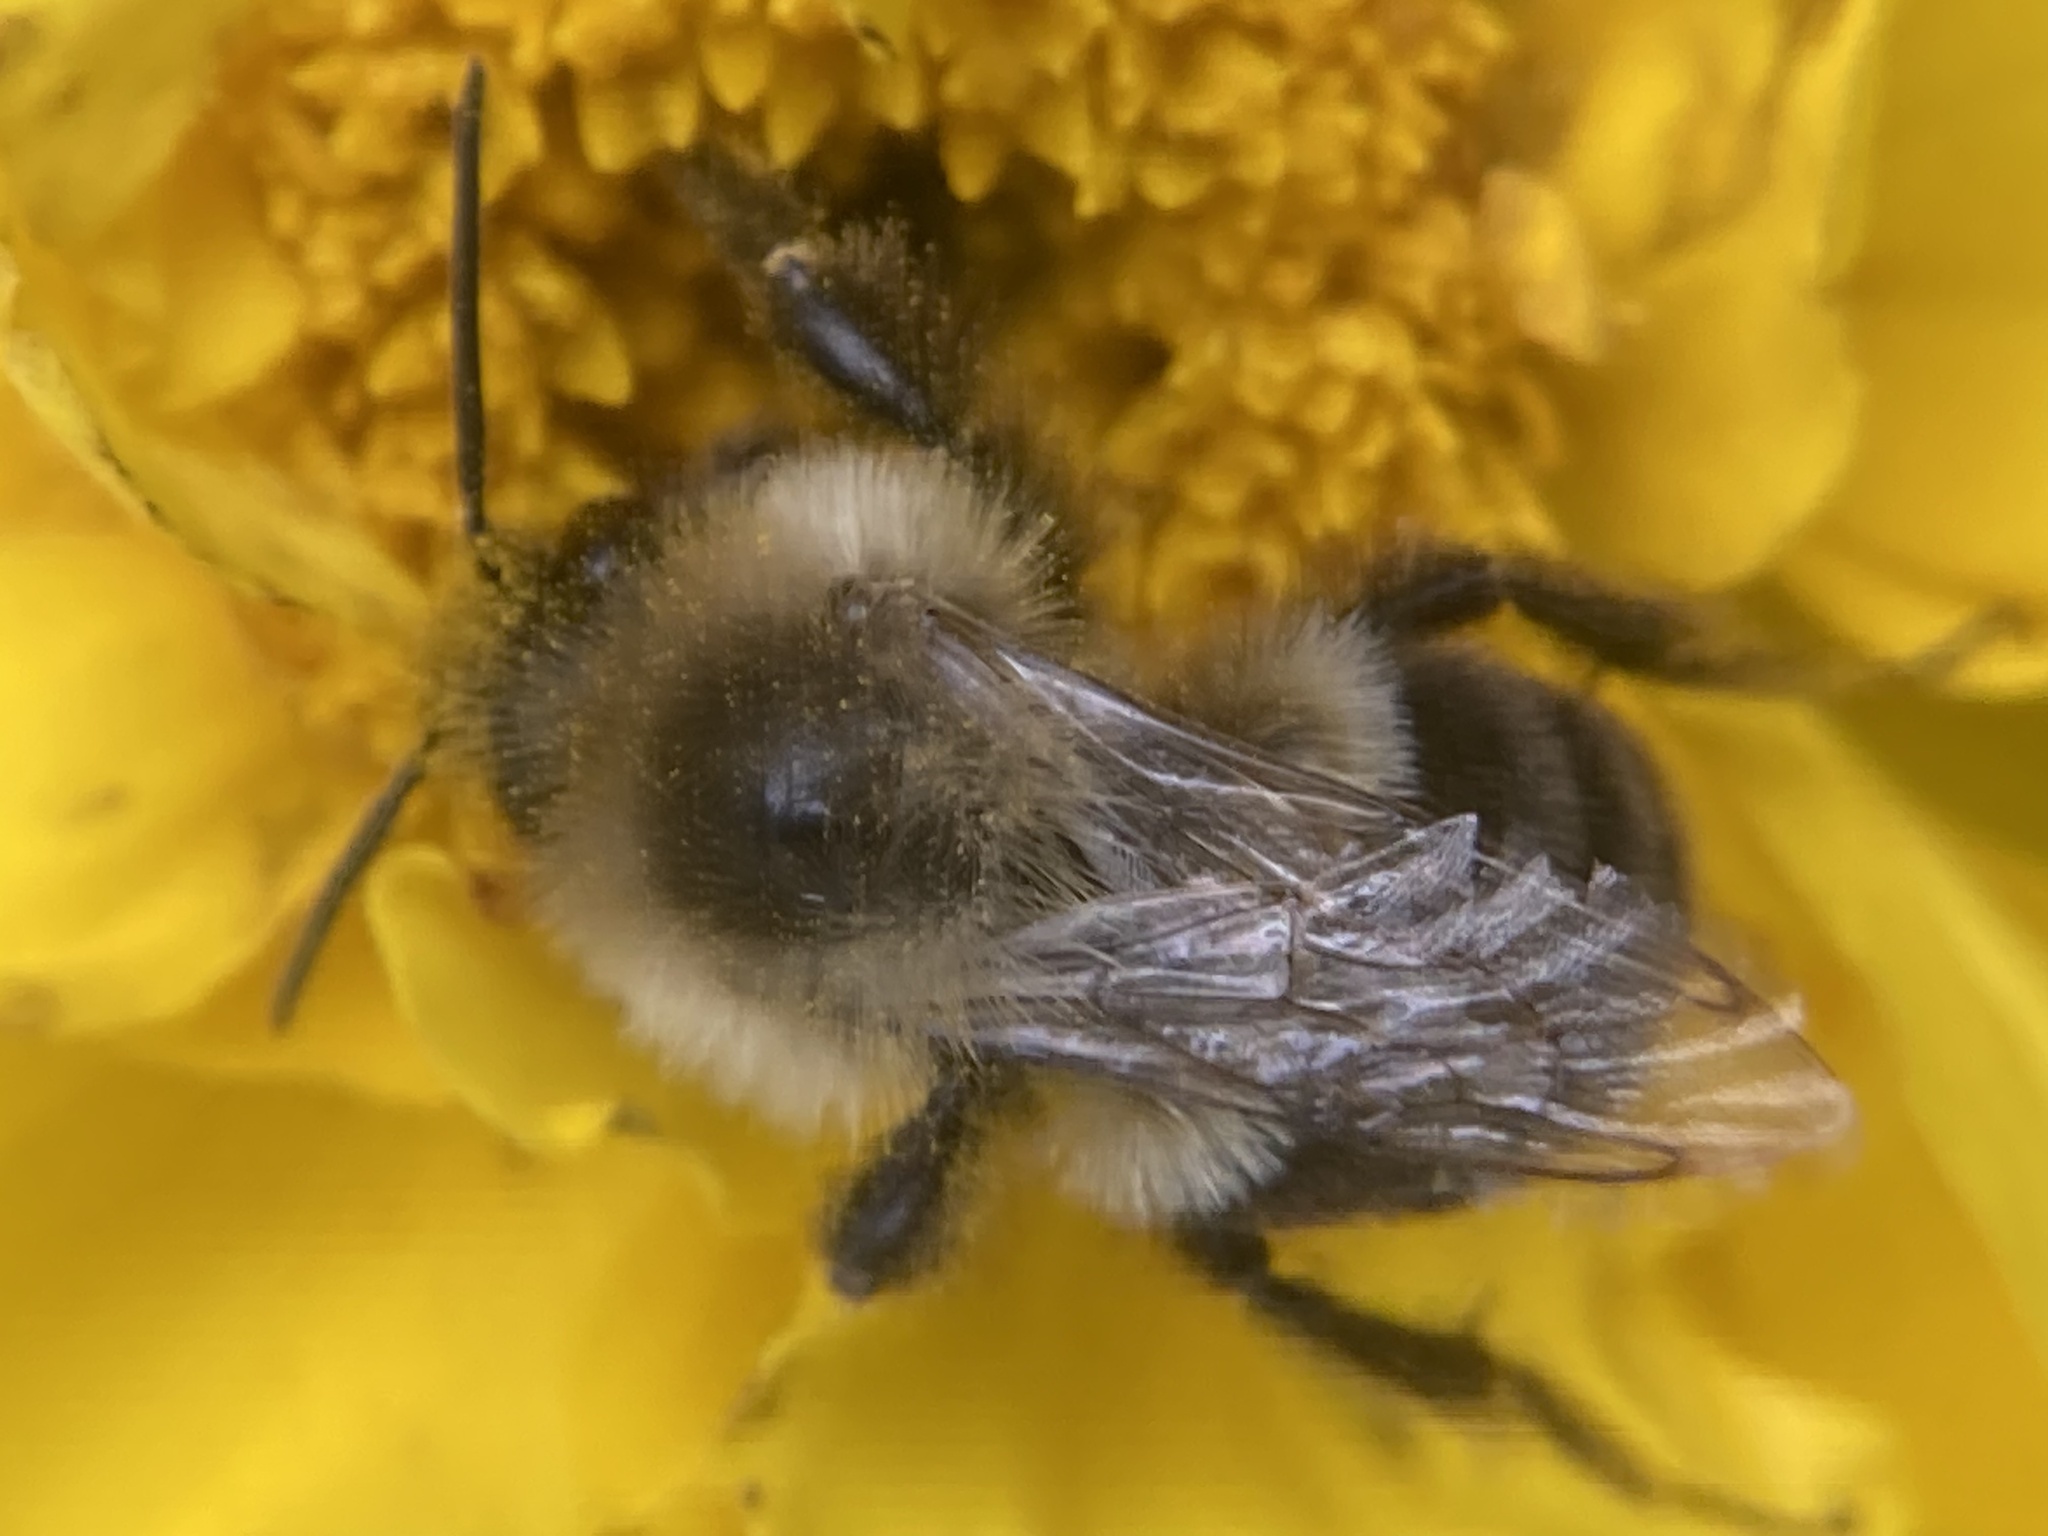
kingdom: Animalia
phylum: Arthropoda
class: Insecta
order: Hymenoptera
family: Apidae
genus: Bombus
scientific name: Bombus impatiens
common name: Common eastern bumble bee
